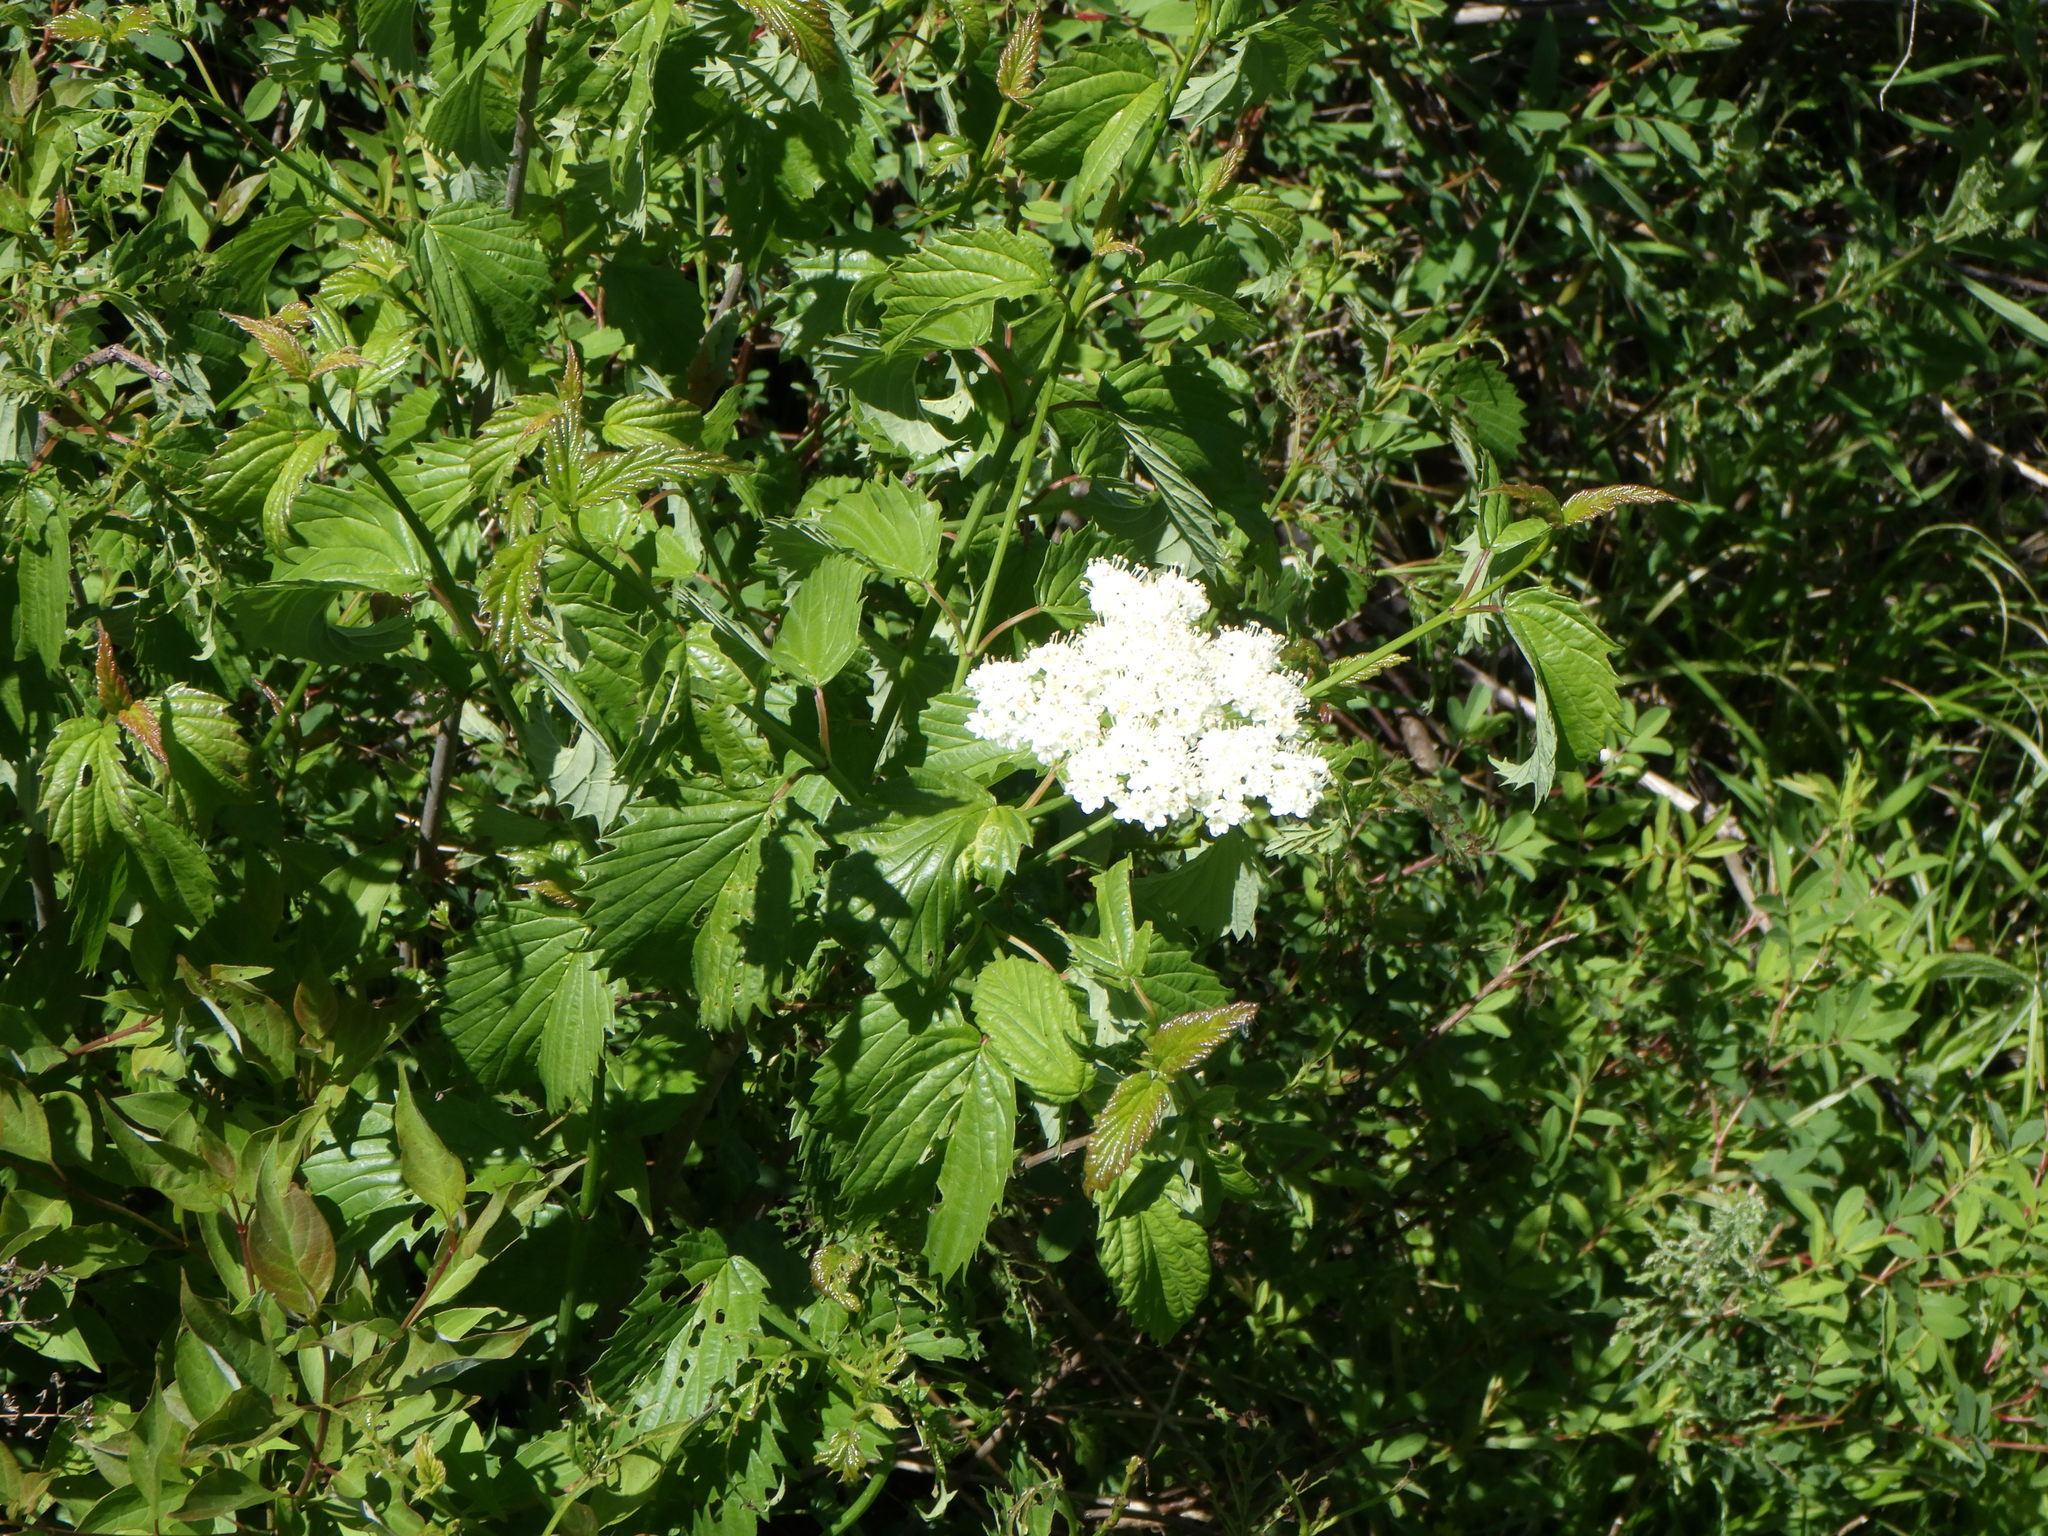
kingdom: Plantae
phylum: Tracheophyta
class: Magnoliopsida
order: Dipsacales
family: Viburnaceae
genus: Viburnum
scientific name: Viburnum recognitum
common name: Northern arrow-wood
